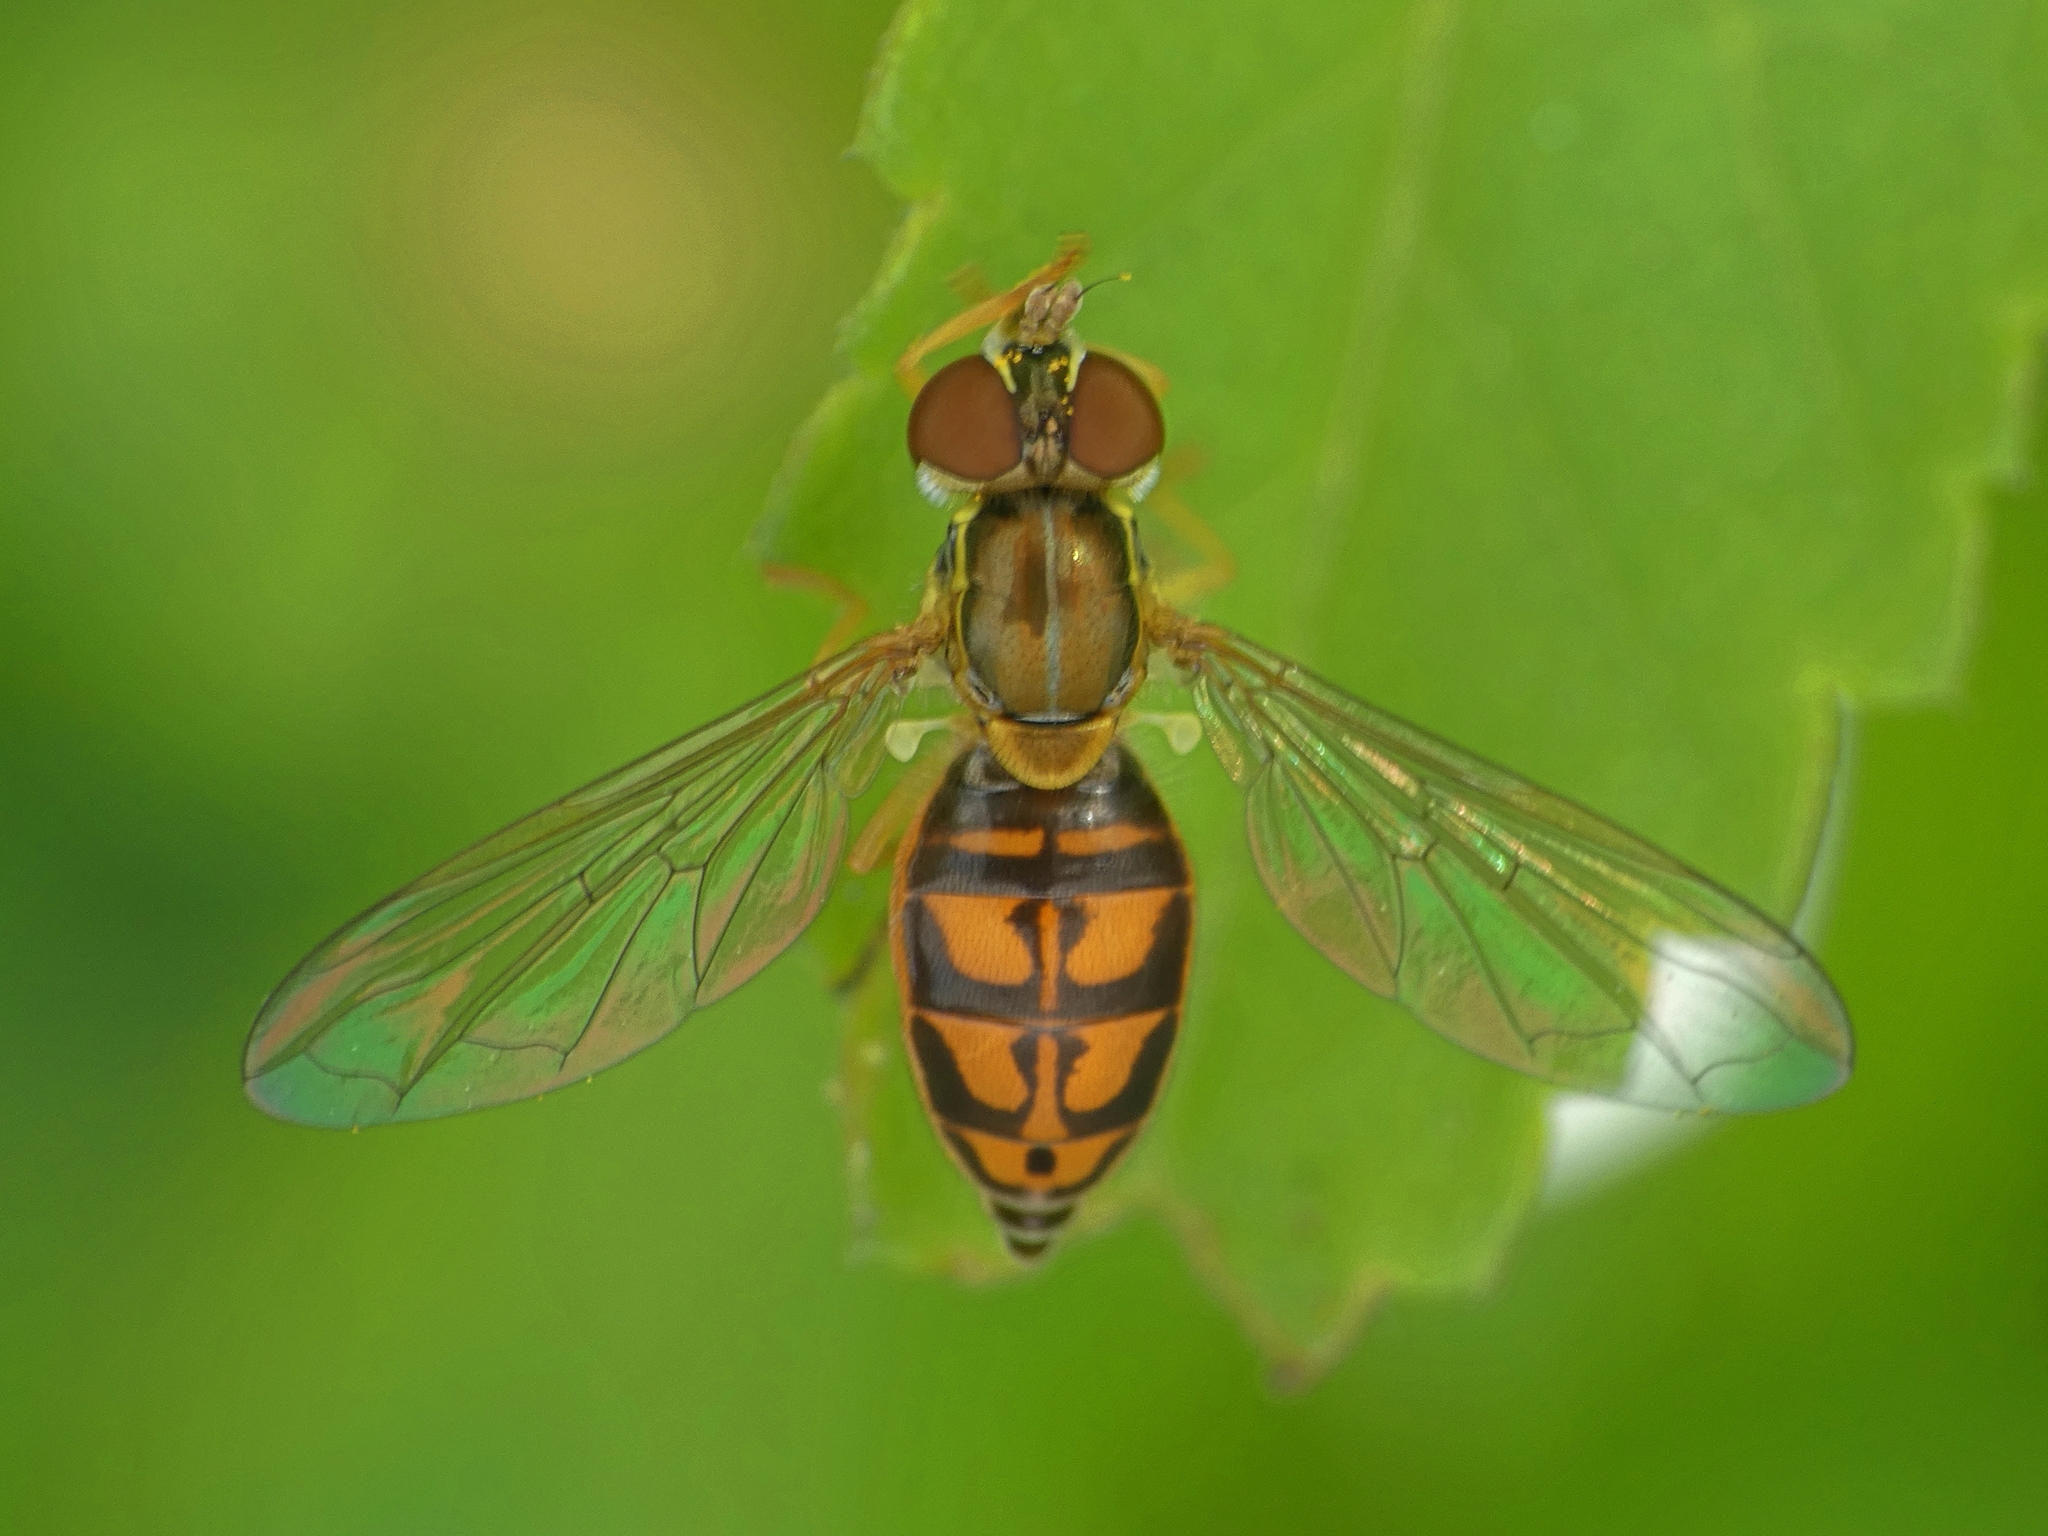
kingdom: Animalia
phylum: Arthropoda
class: Insecta
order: Diptera
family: Syrphidae
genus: Toxomerus
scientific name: Toxomerus marginatus
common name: Syrphid fly
